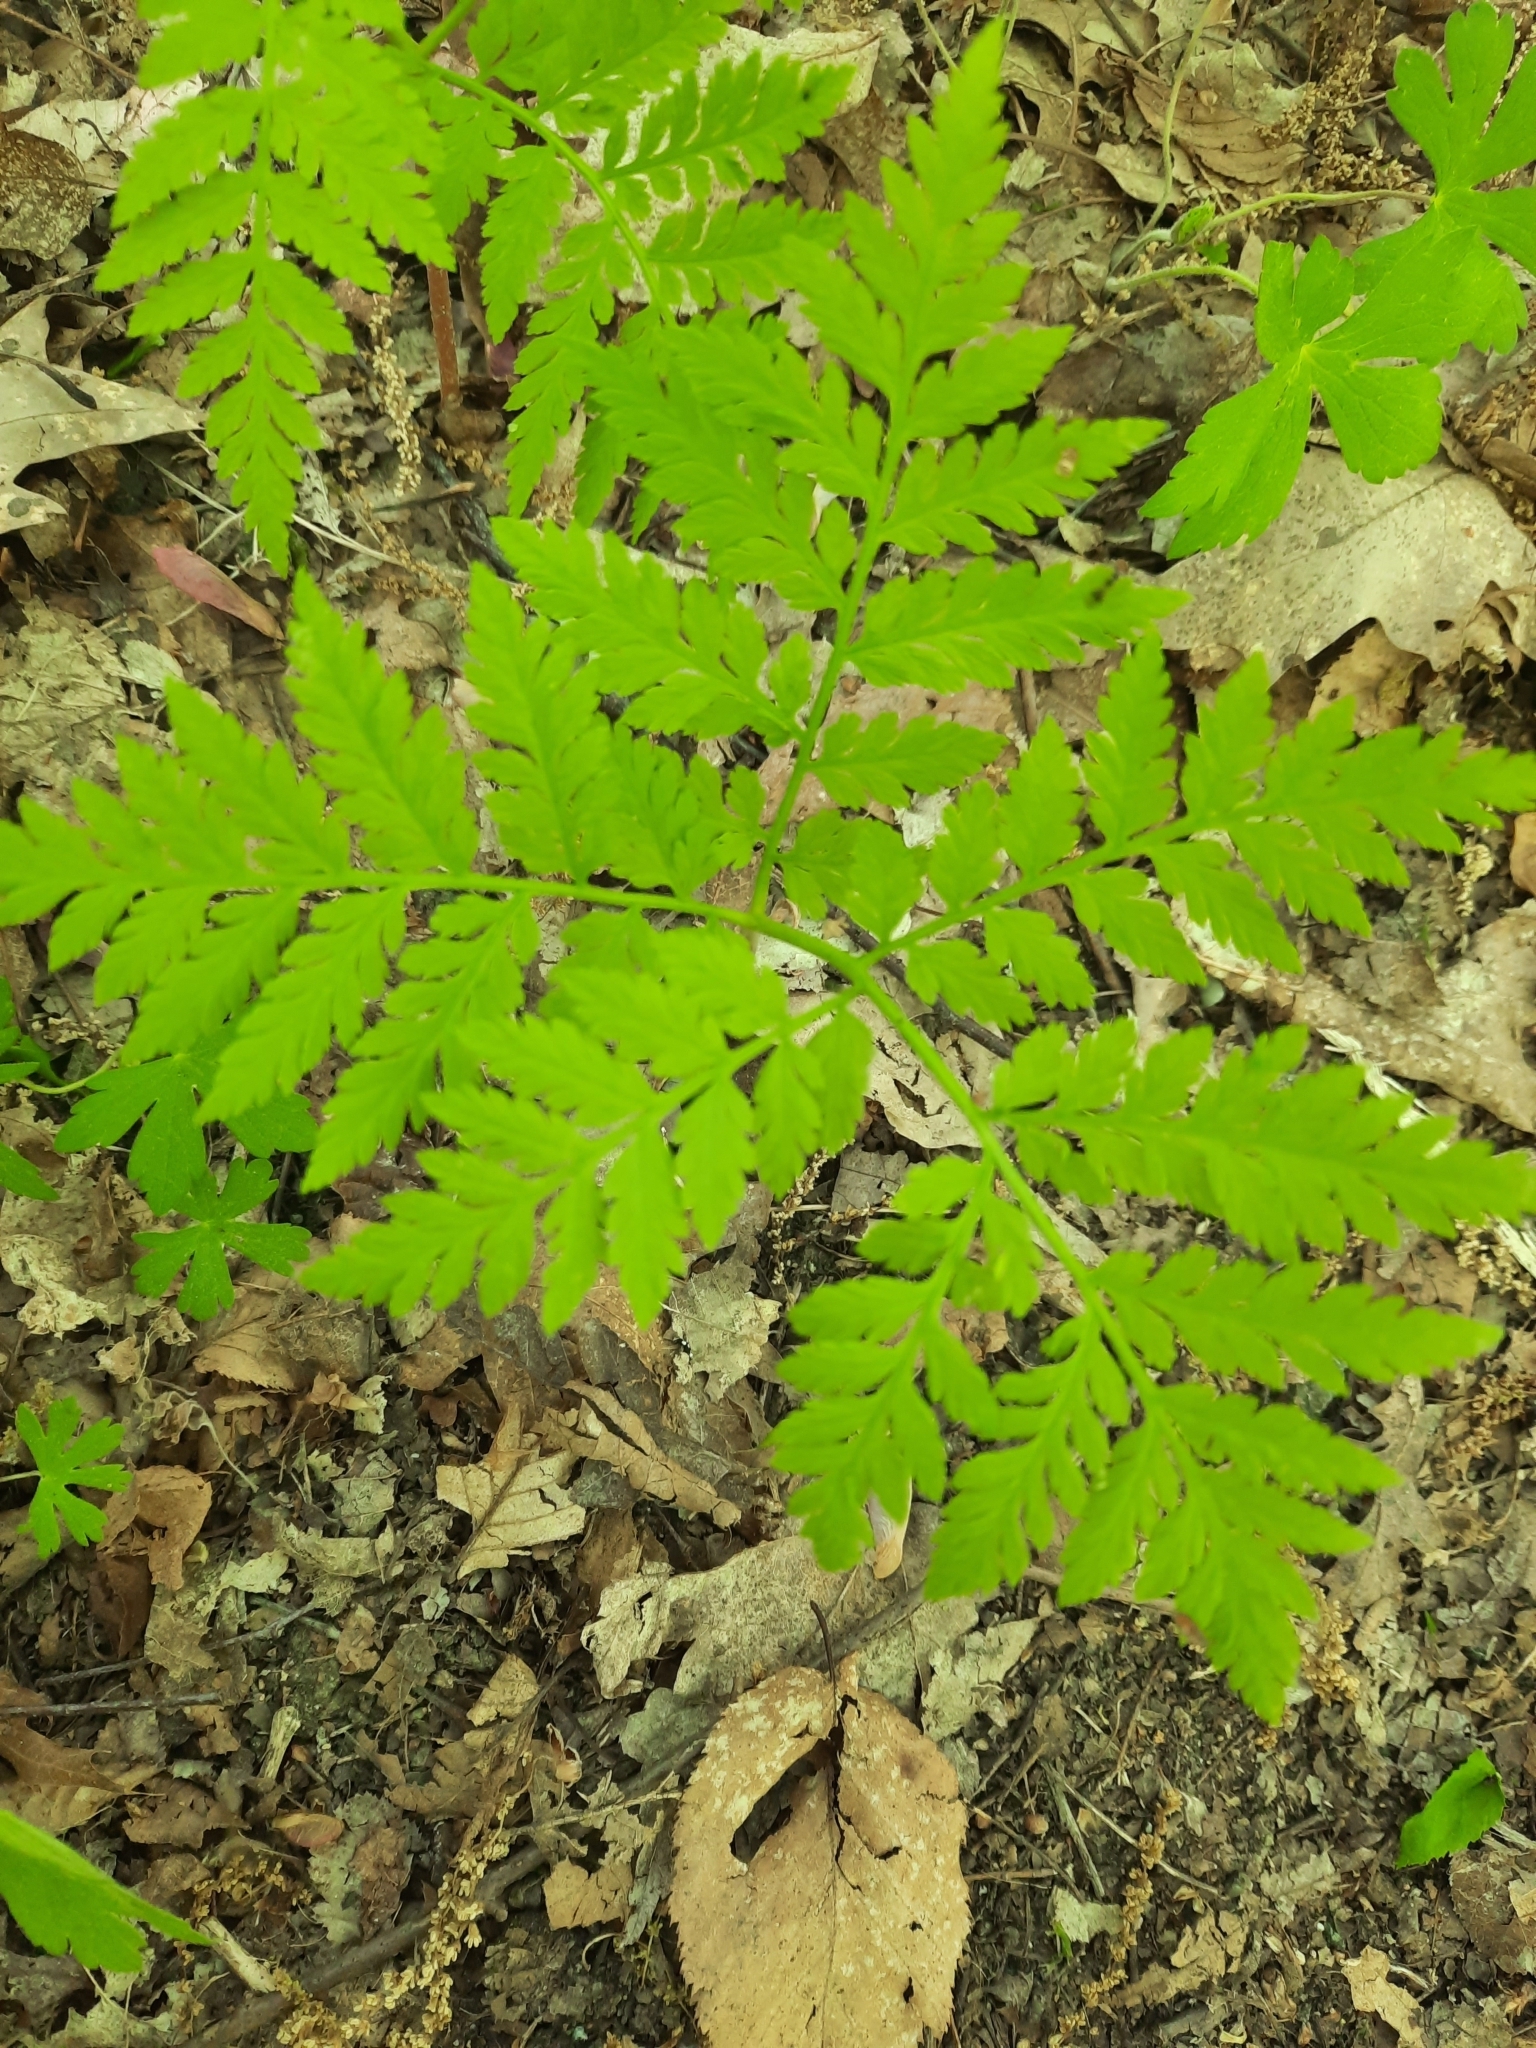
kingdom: Plantae
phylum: Tracheophyta
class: Polypodiopsida
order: Ophioglossales
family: Ophioglossaceae
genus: Botrypus
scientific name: Botrypus virginianus
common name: Common grapefern
